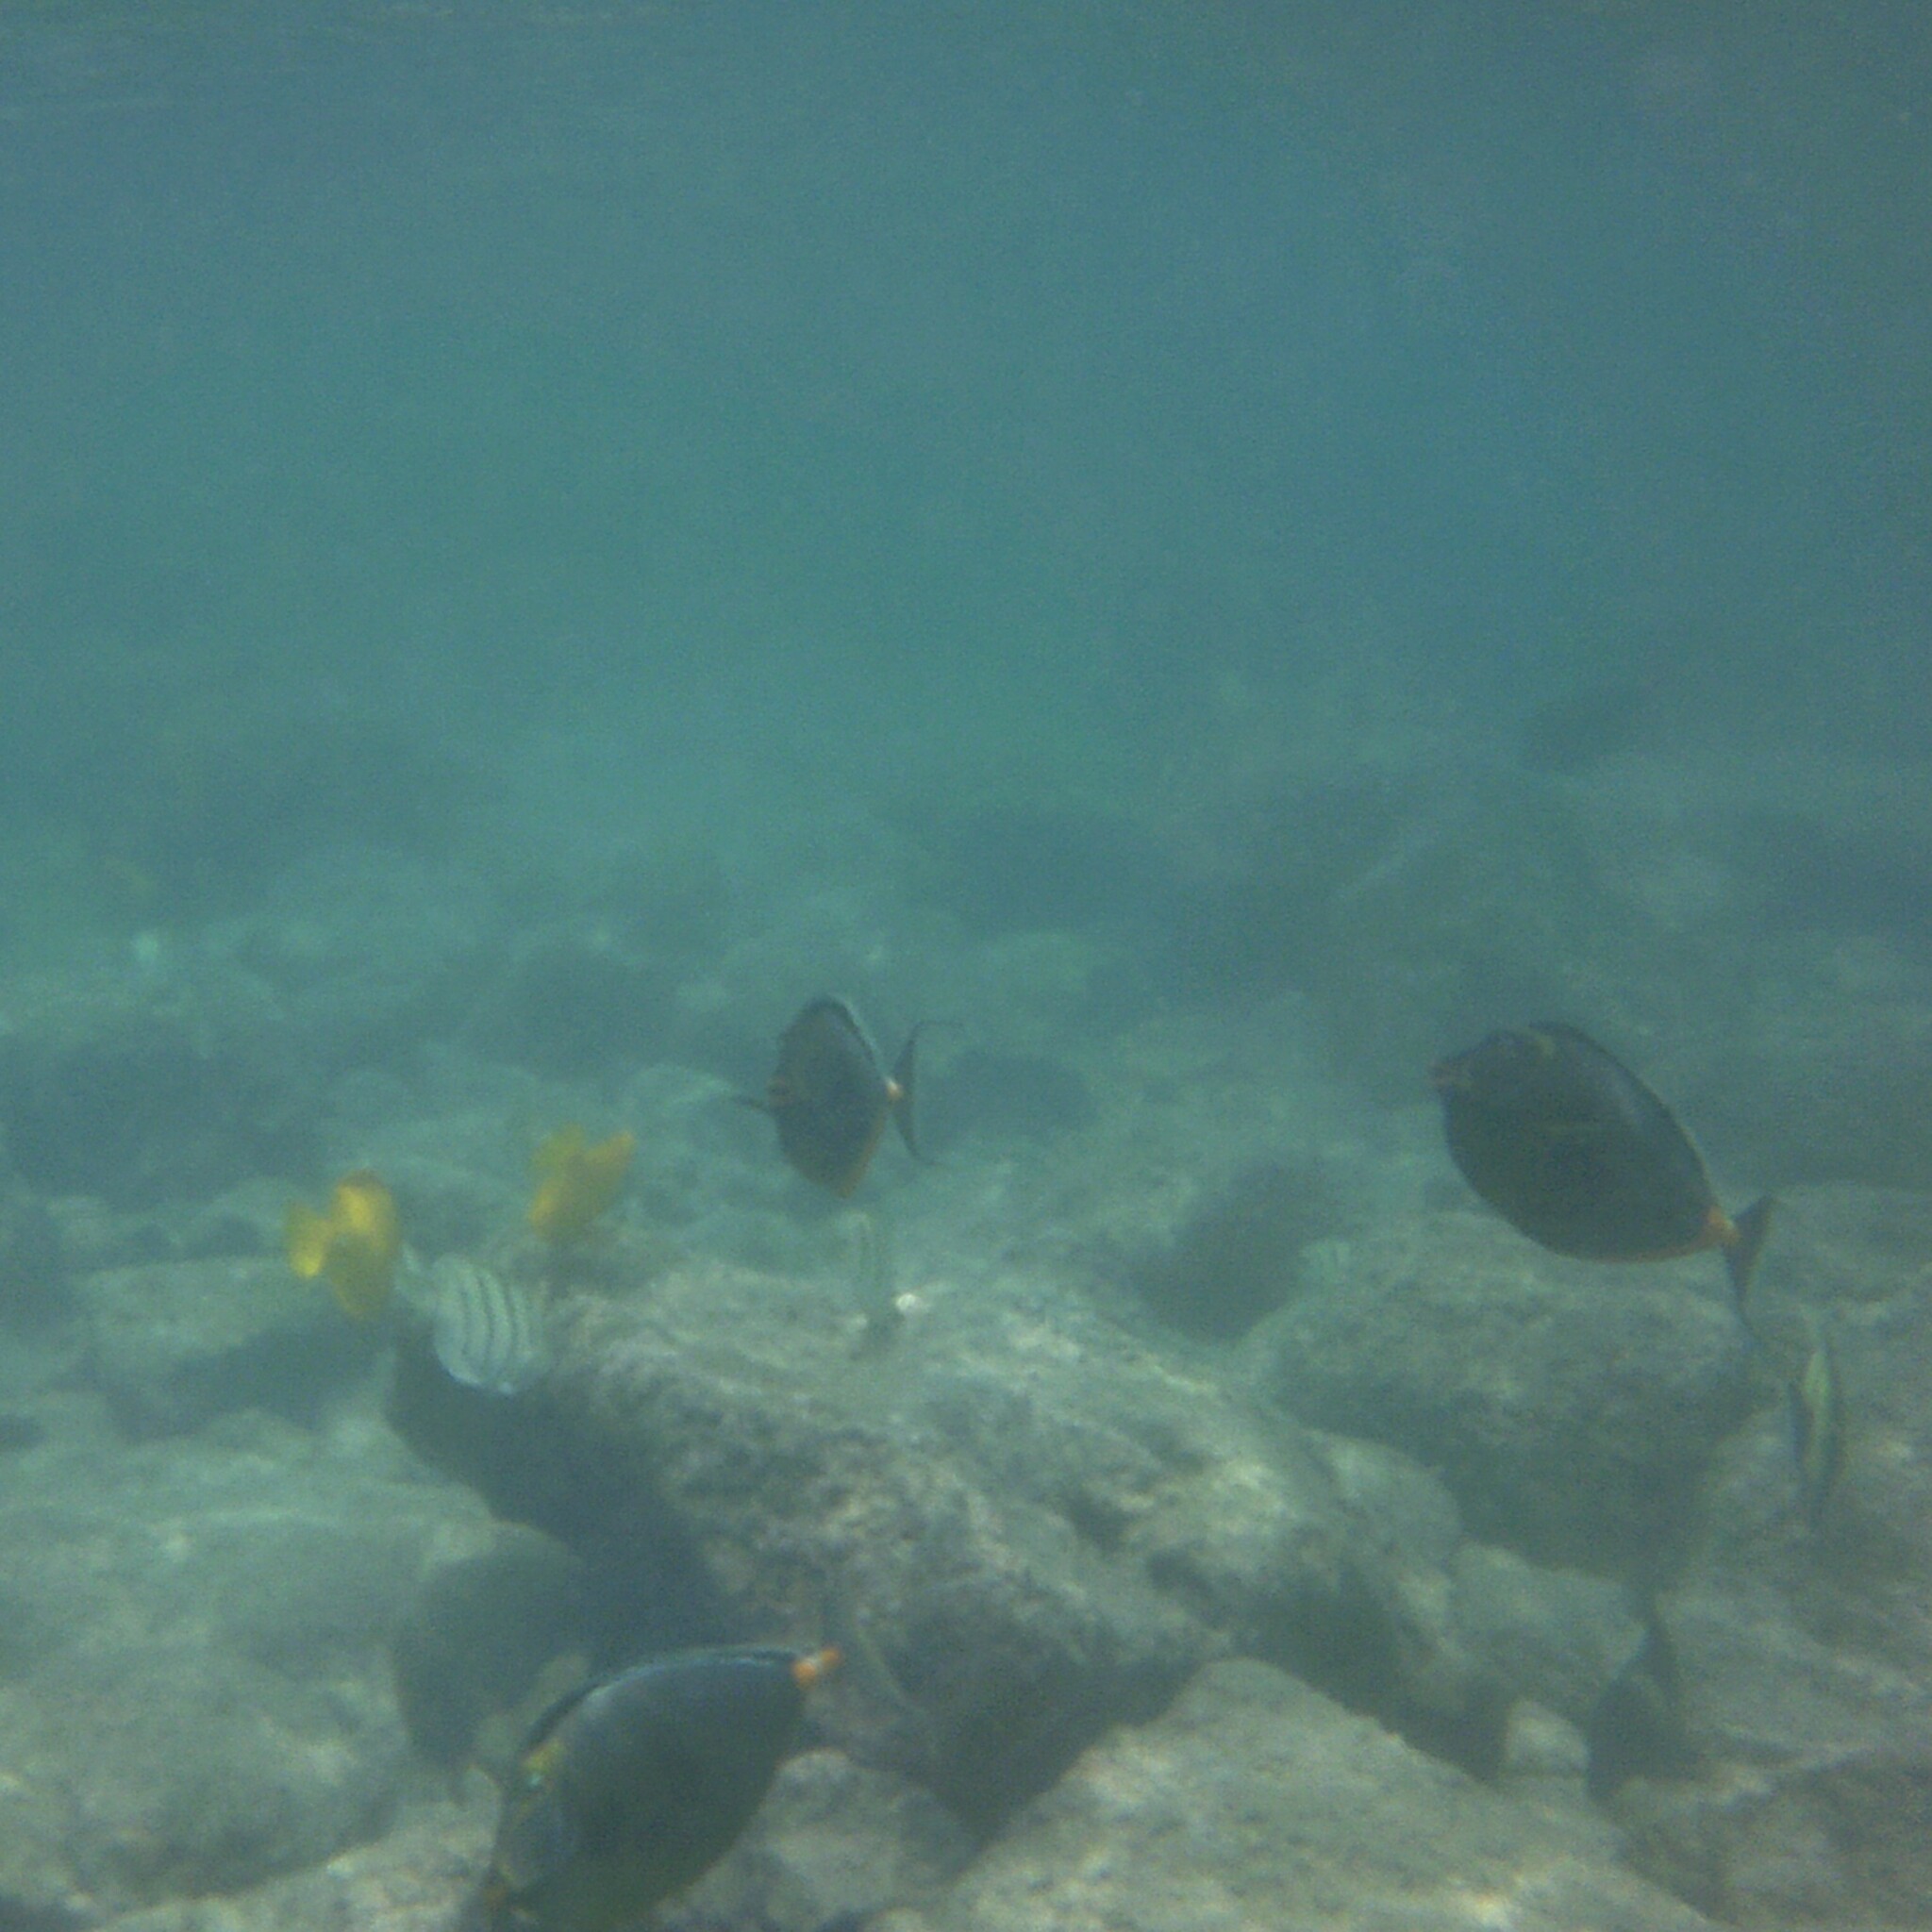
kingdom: Animalia
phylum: Chordata
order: Perciformes
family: Acanthuridae
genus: Naso
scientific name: Naso lituratus
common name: Orangespine unicornfish
